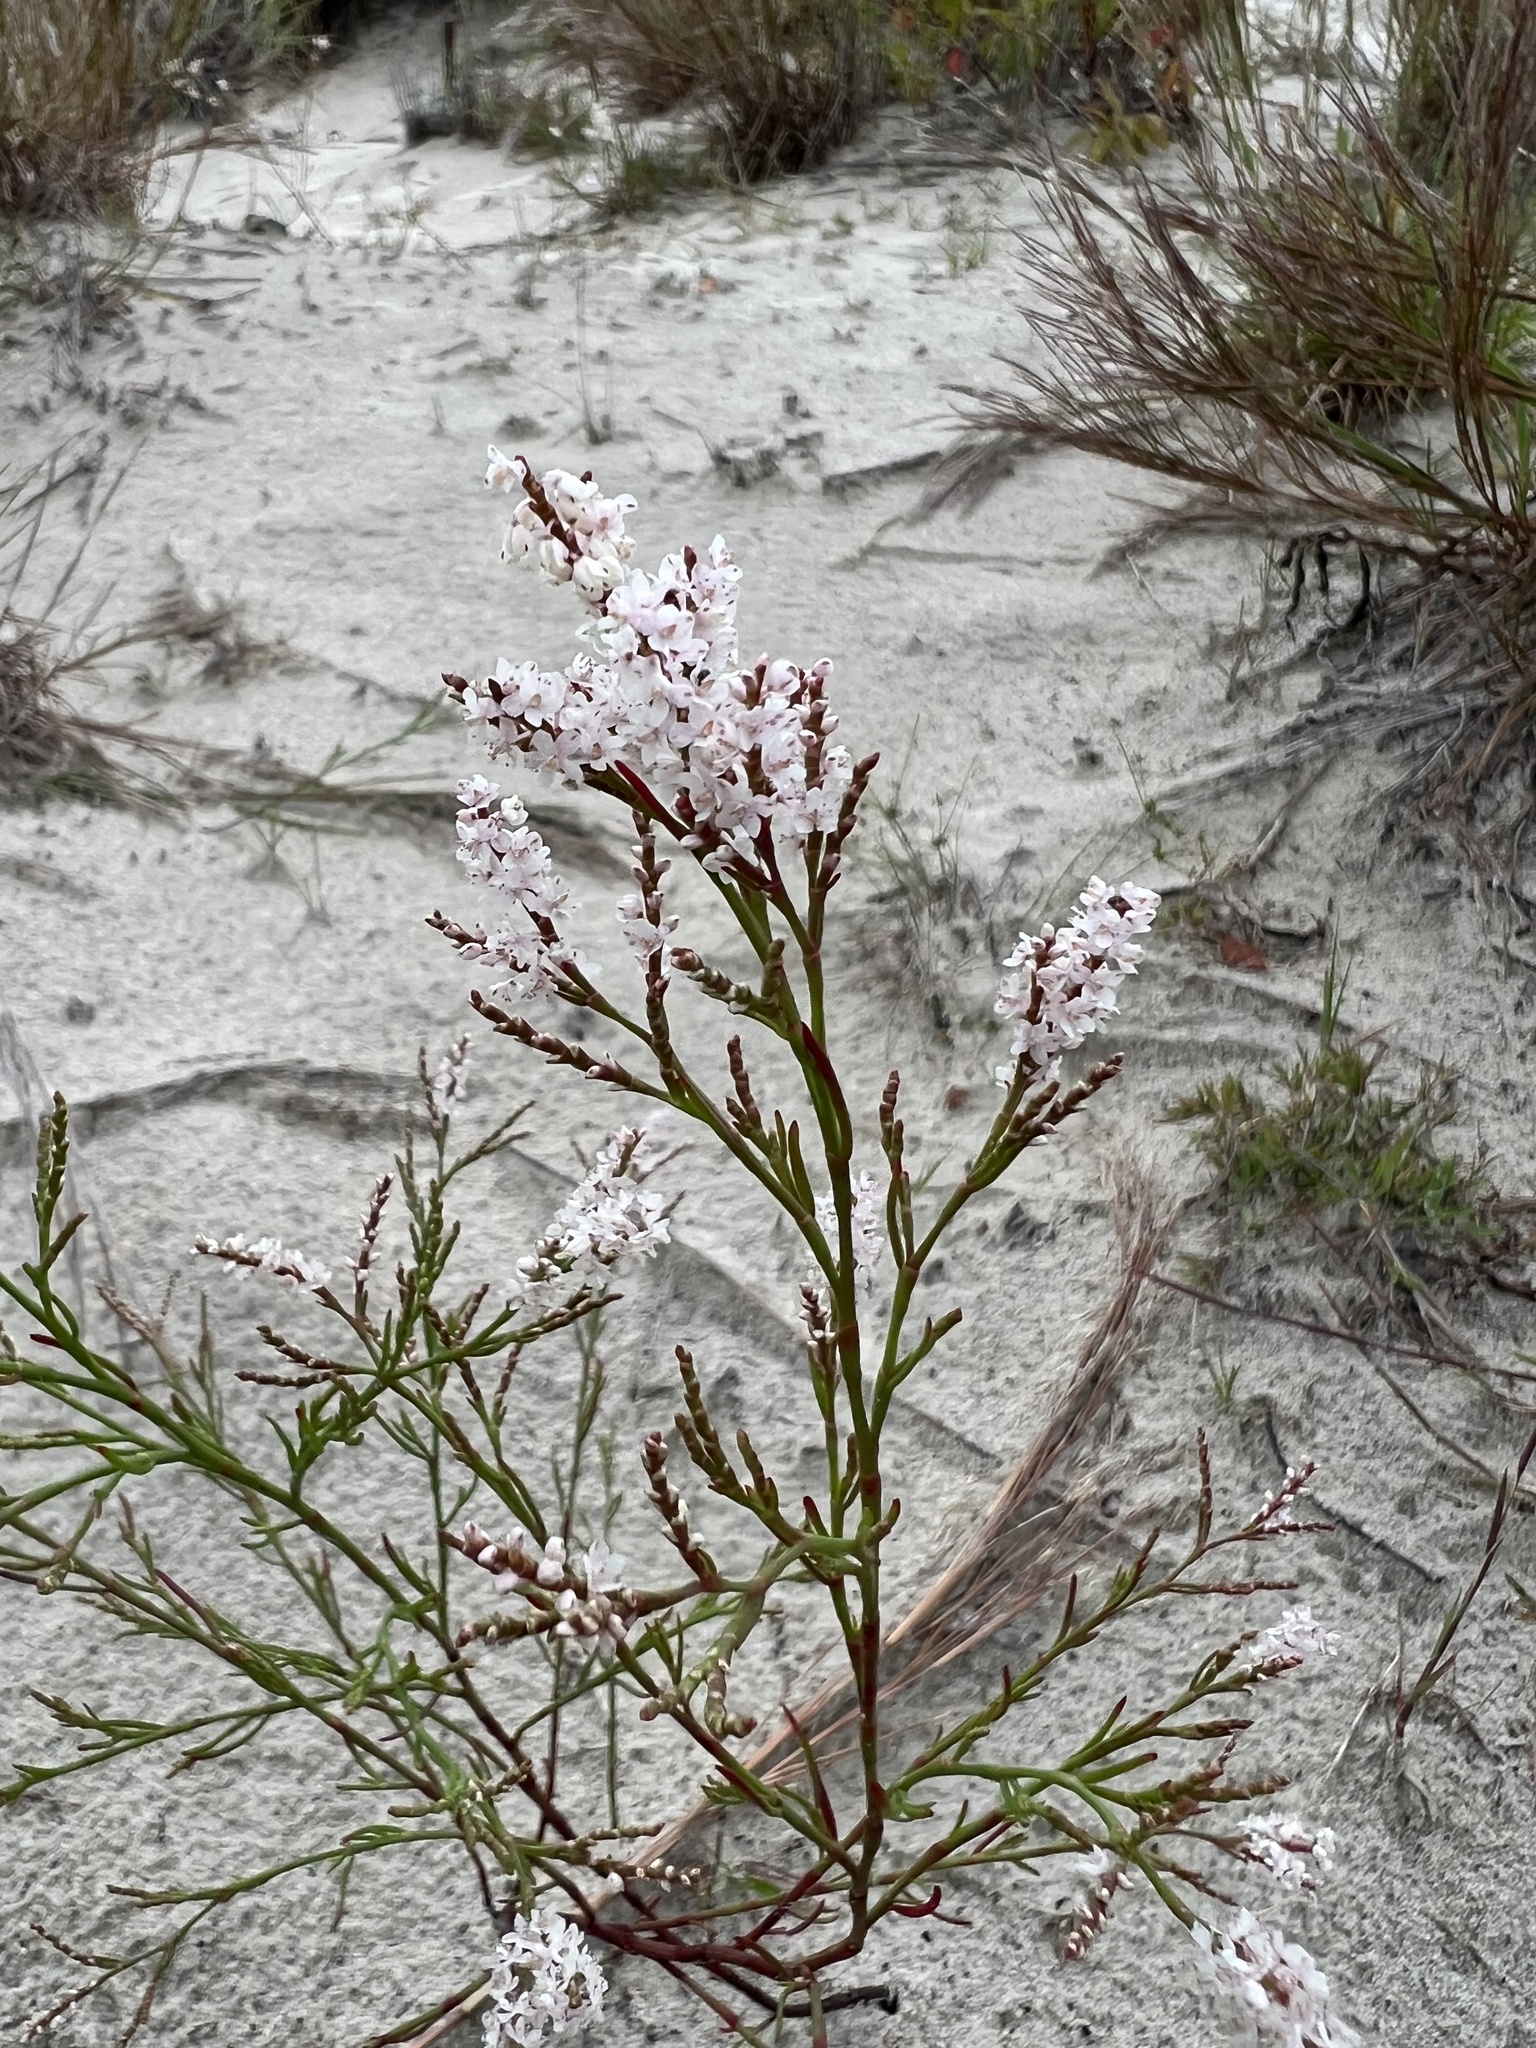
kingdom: Plantae
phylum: Tracheophyta
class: Magnoliopsida
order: Caryophyllales
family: Polygonaceae
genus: Polygonella
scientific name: Polygonella articulata
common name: Coastal jointweed
